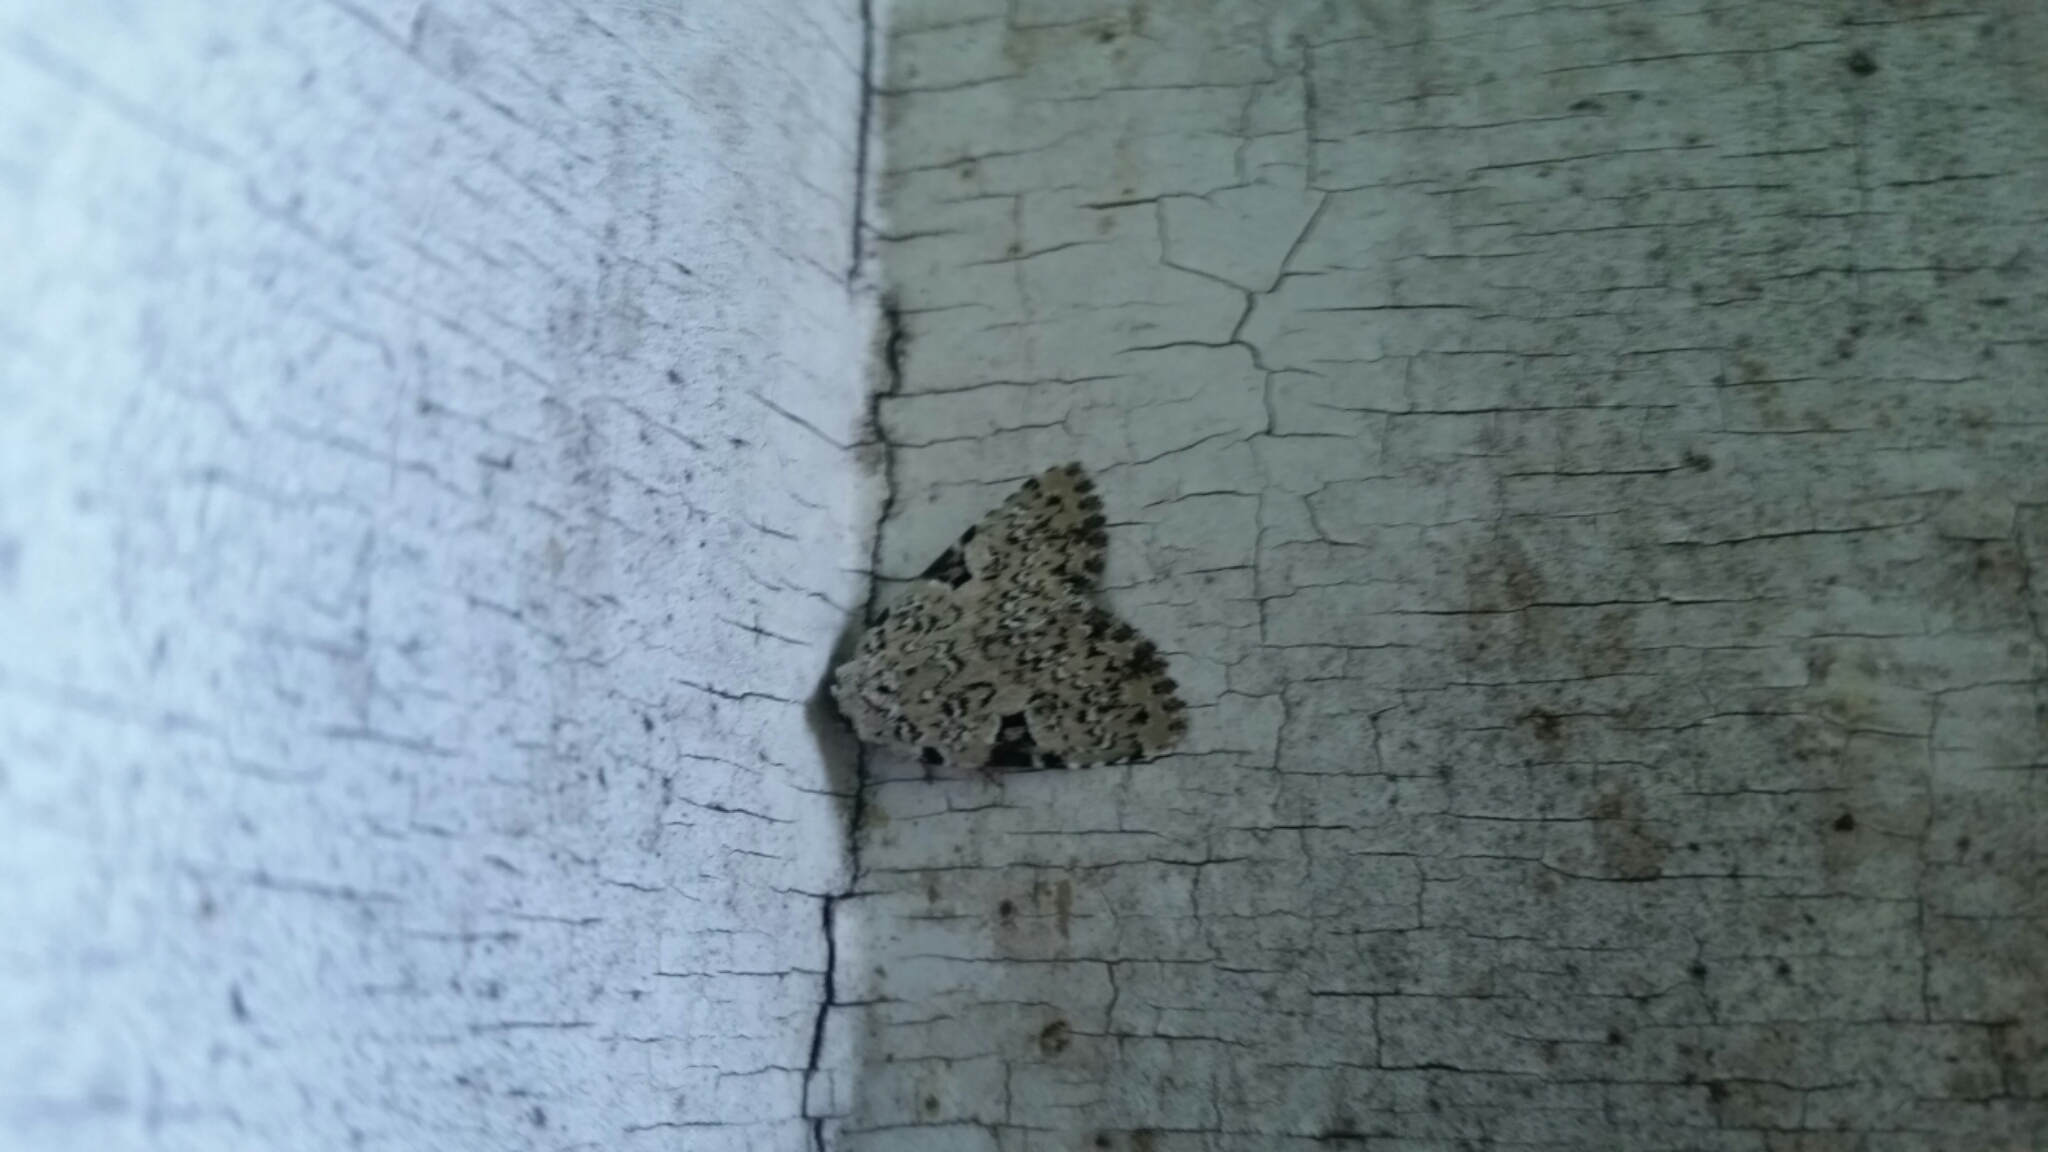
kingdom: Animalia
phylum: Arthropoda
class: Insecta
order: Lepidoptera
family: Noctuidae
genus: Leuconycta
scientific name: Leuconycta diphteroides
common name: Green leuconycta moth
